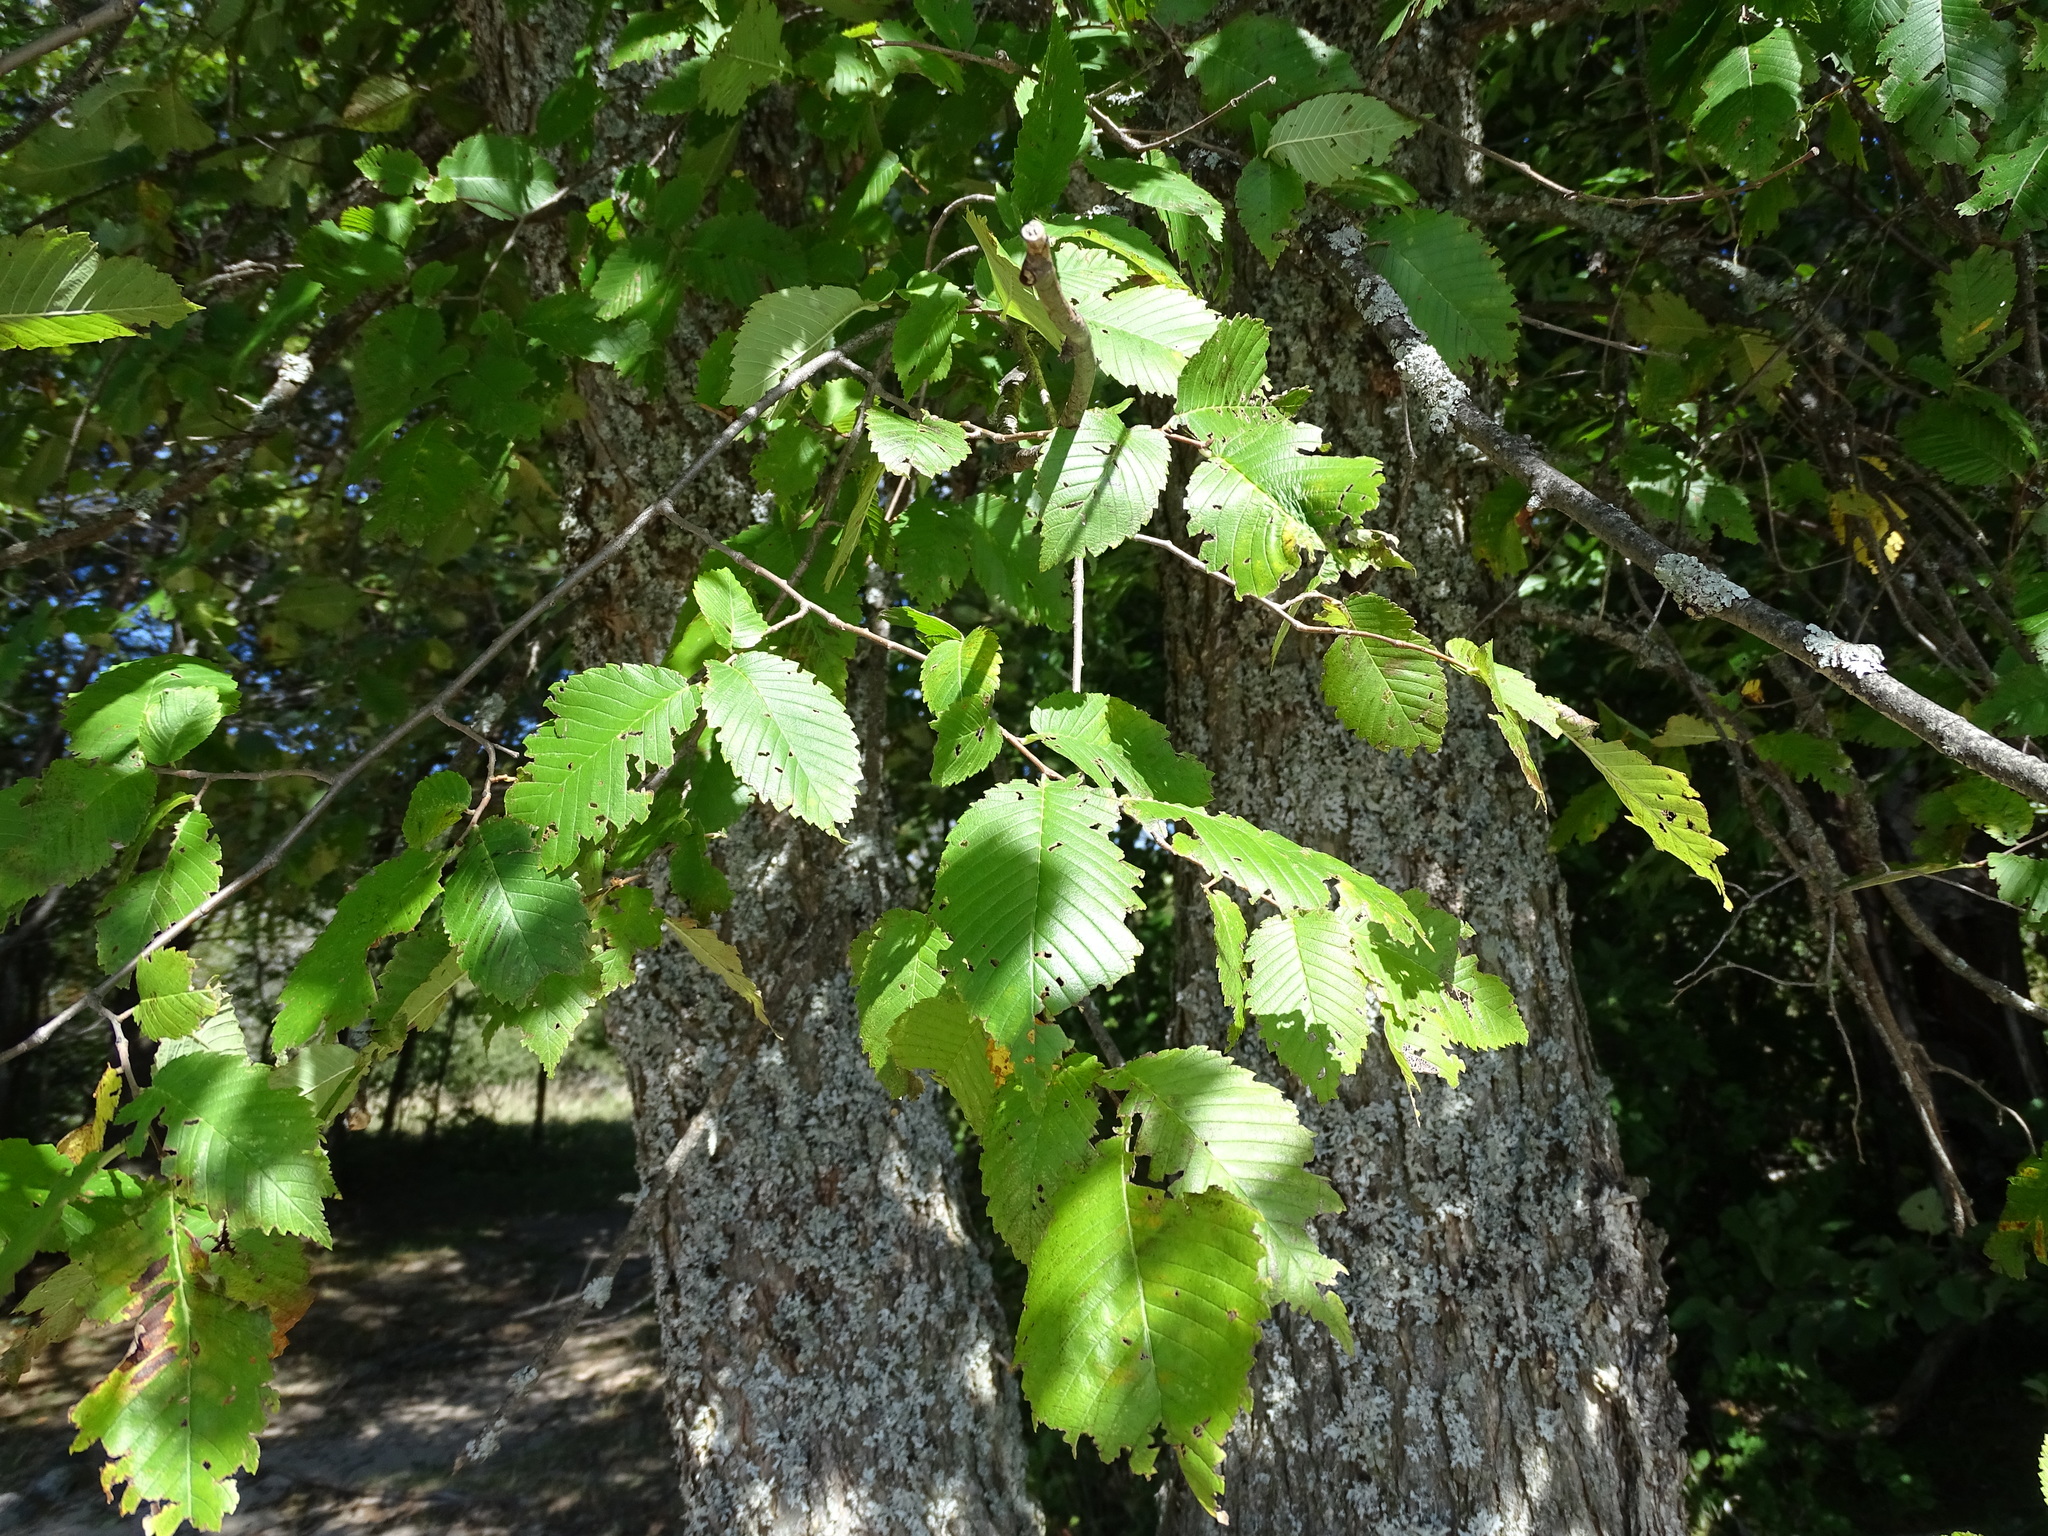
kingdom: Plantae
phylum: Tracheophyta
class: Magnoliopsida
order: Rosales
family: Ulmaceae
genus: Ulmus
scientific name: Ulmus americana
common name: American elm
